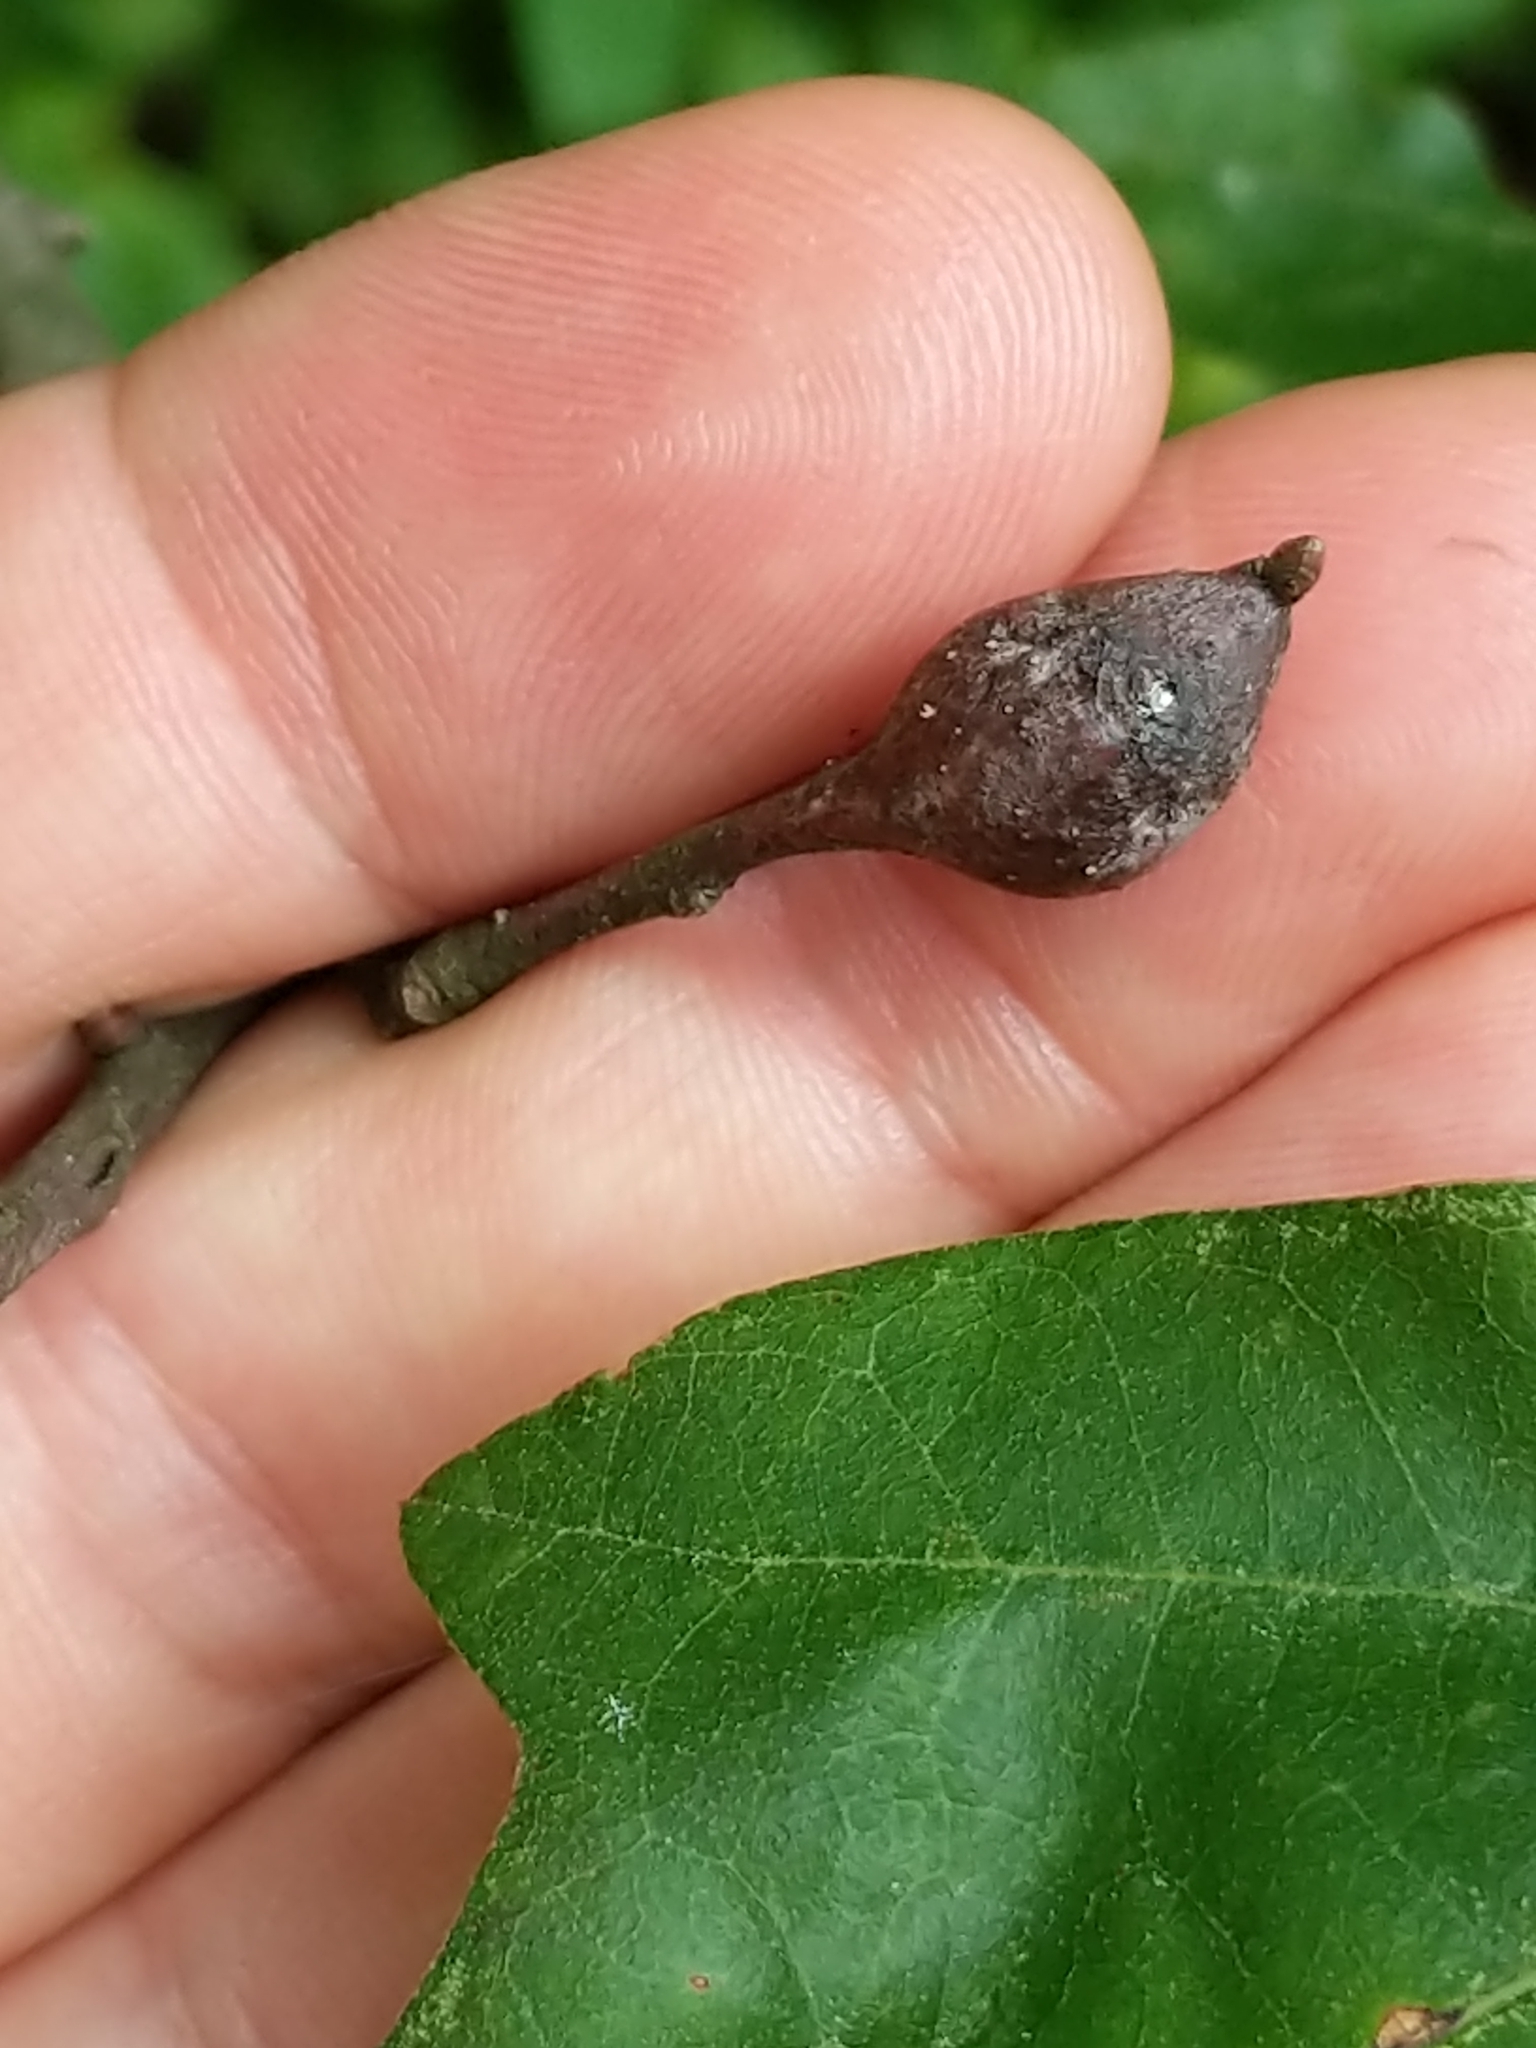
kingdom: Animalia
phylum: Arthropoda
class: Insecta
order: Hymenoptera
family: Cynipidae
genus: Zapatella
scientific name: Zapatella quercusphellos
